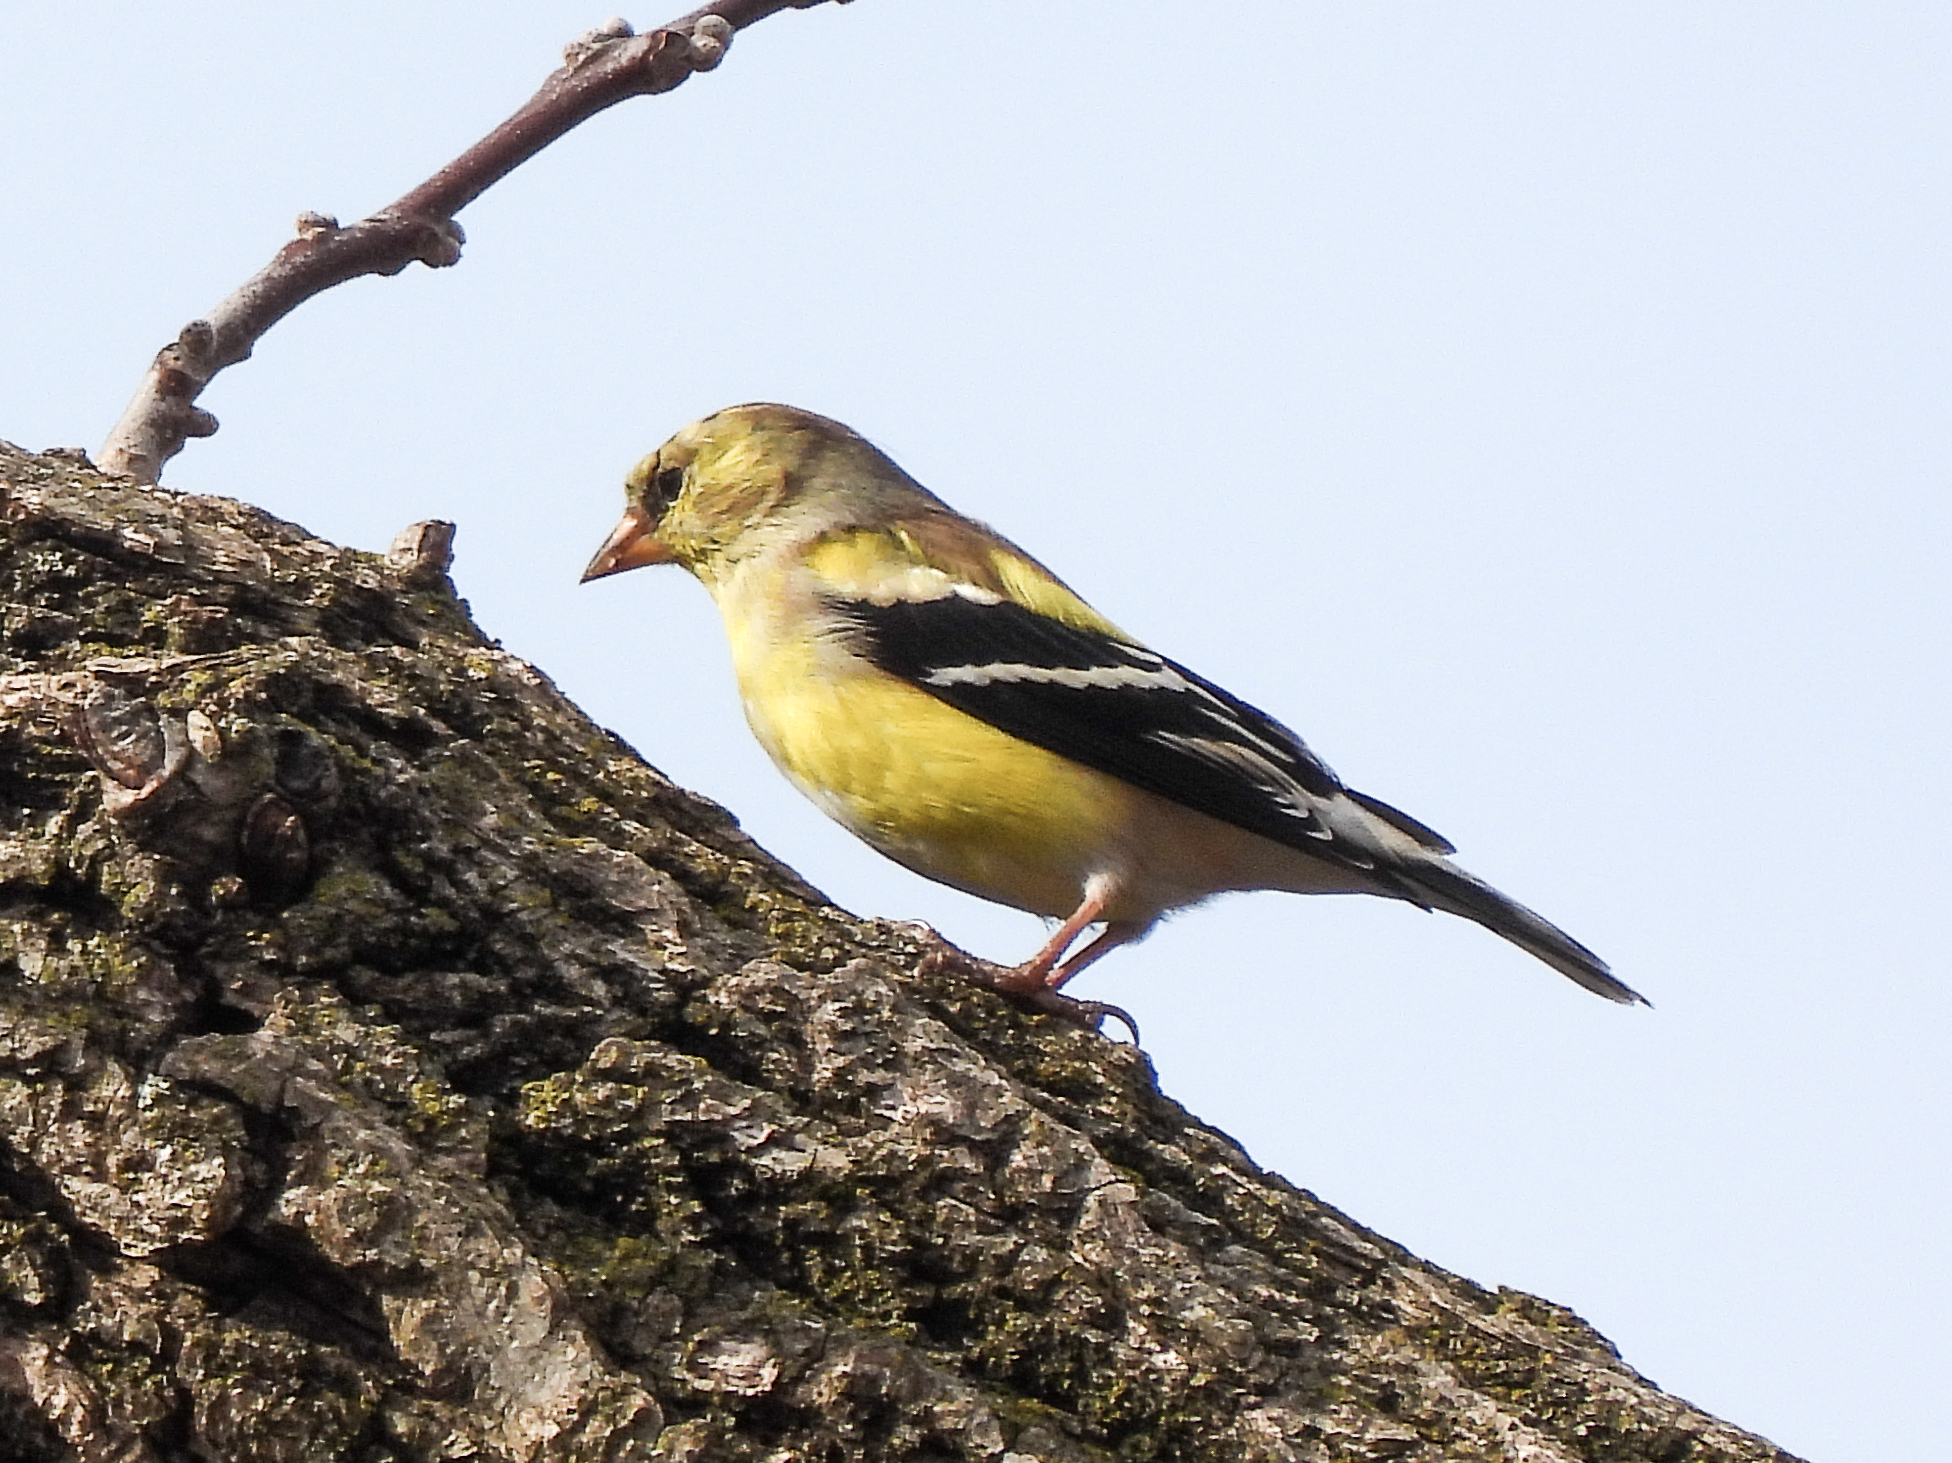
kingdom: Animalia
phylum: Chordata
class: Aves
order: Passeriformes
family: Fringillidae
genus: Spinus
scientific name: Spinus tristis
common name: American goldfinch
